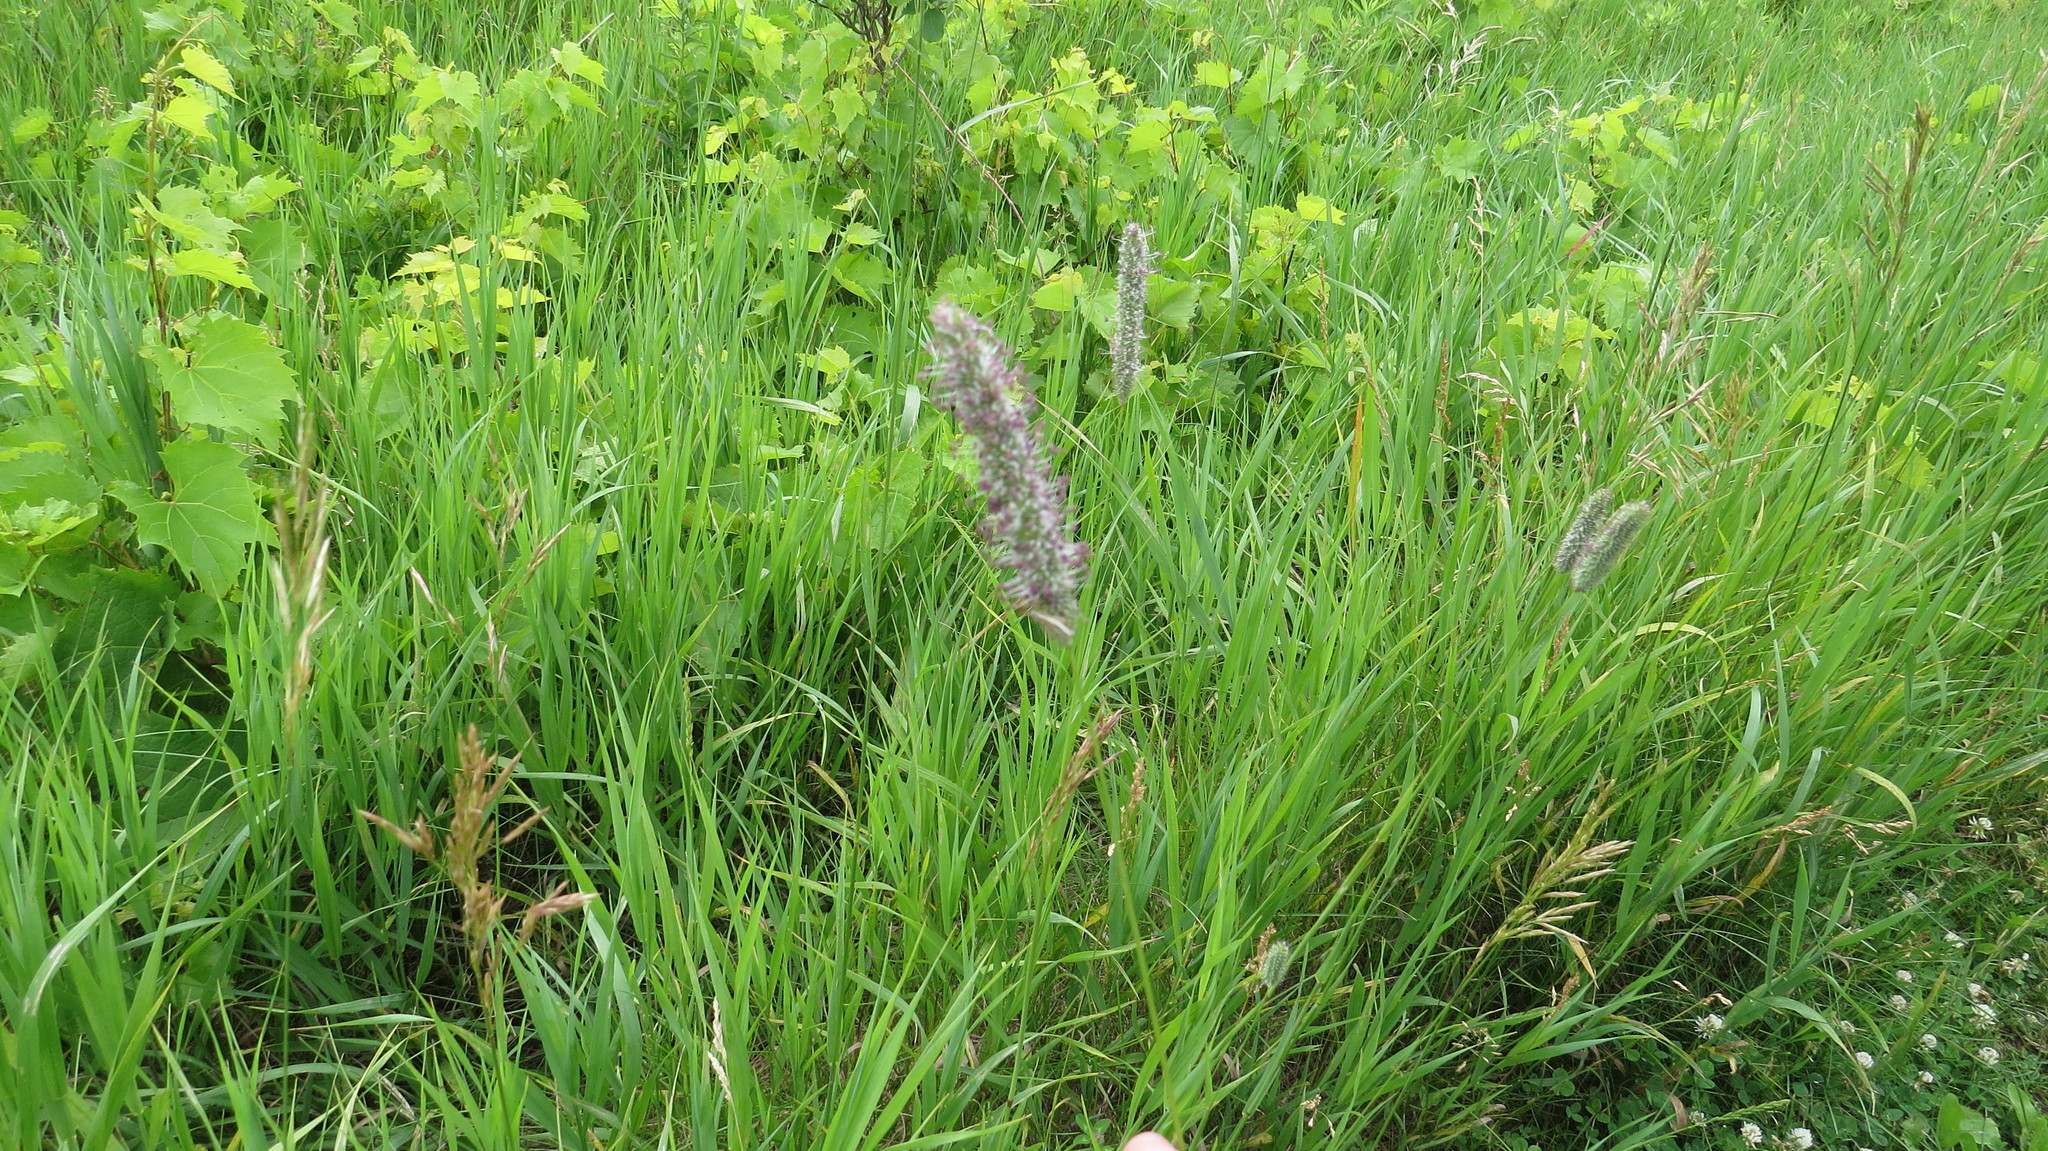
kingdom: Plantae
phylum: Tracheophyta
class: Liliopsida
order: Poales
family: Poaceae
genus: Phleum
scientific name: Phleum pratense
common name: Timothy grass
